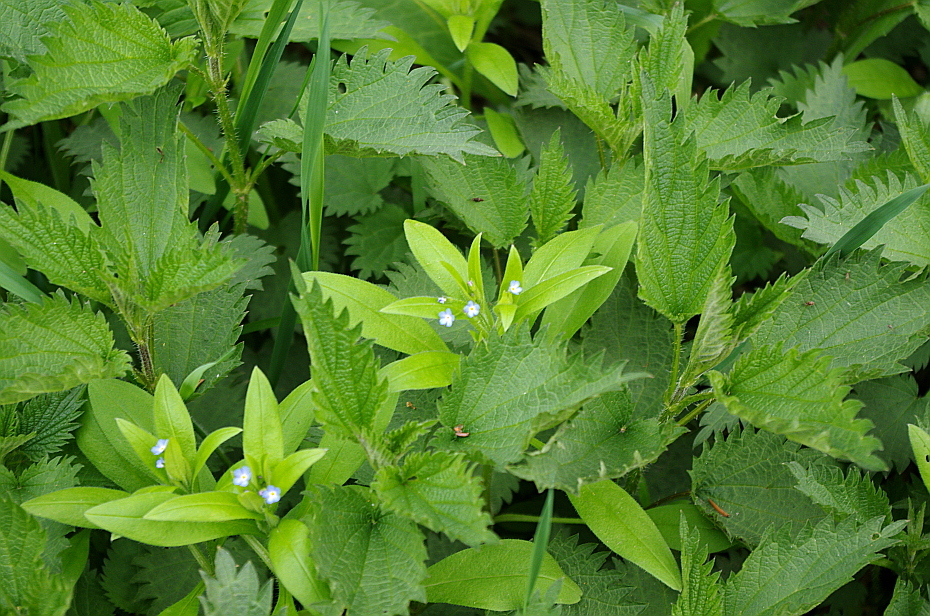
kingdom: Plantae
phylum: Tracheophyta
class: Magnoliopsida
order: Boraginales
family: Boraginaceae
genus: Myosotis
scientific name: Myosotis sparsiflora
